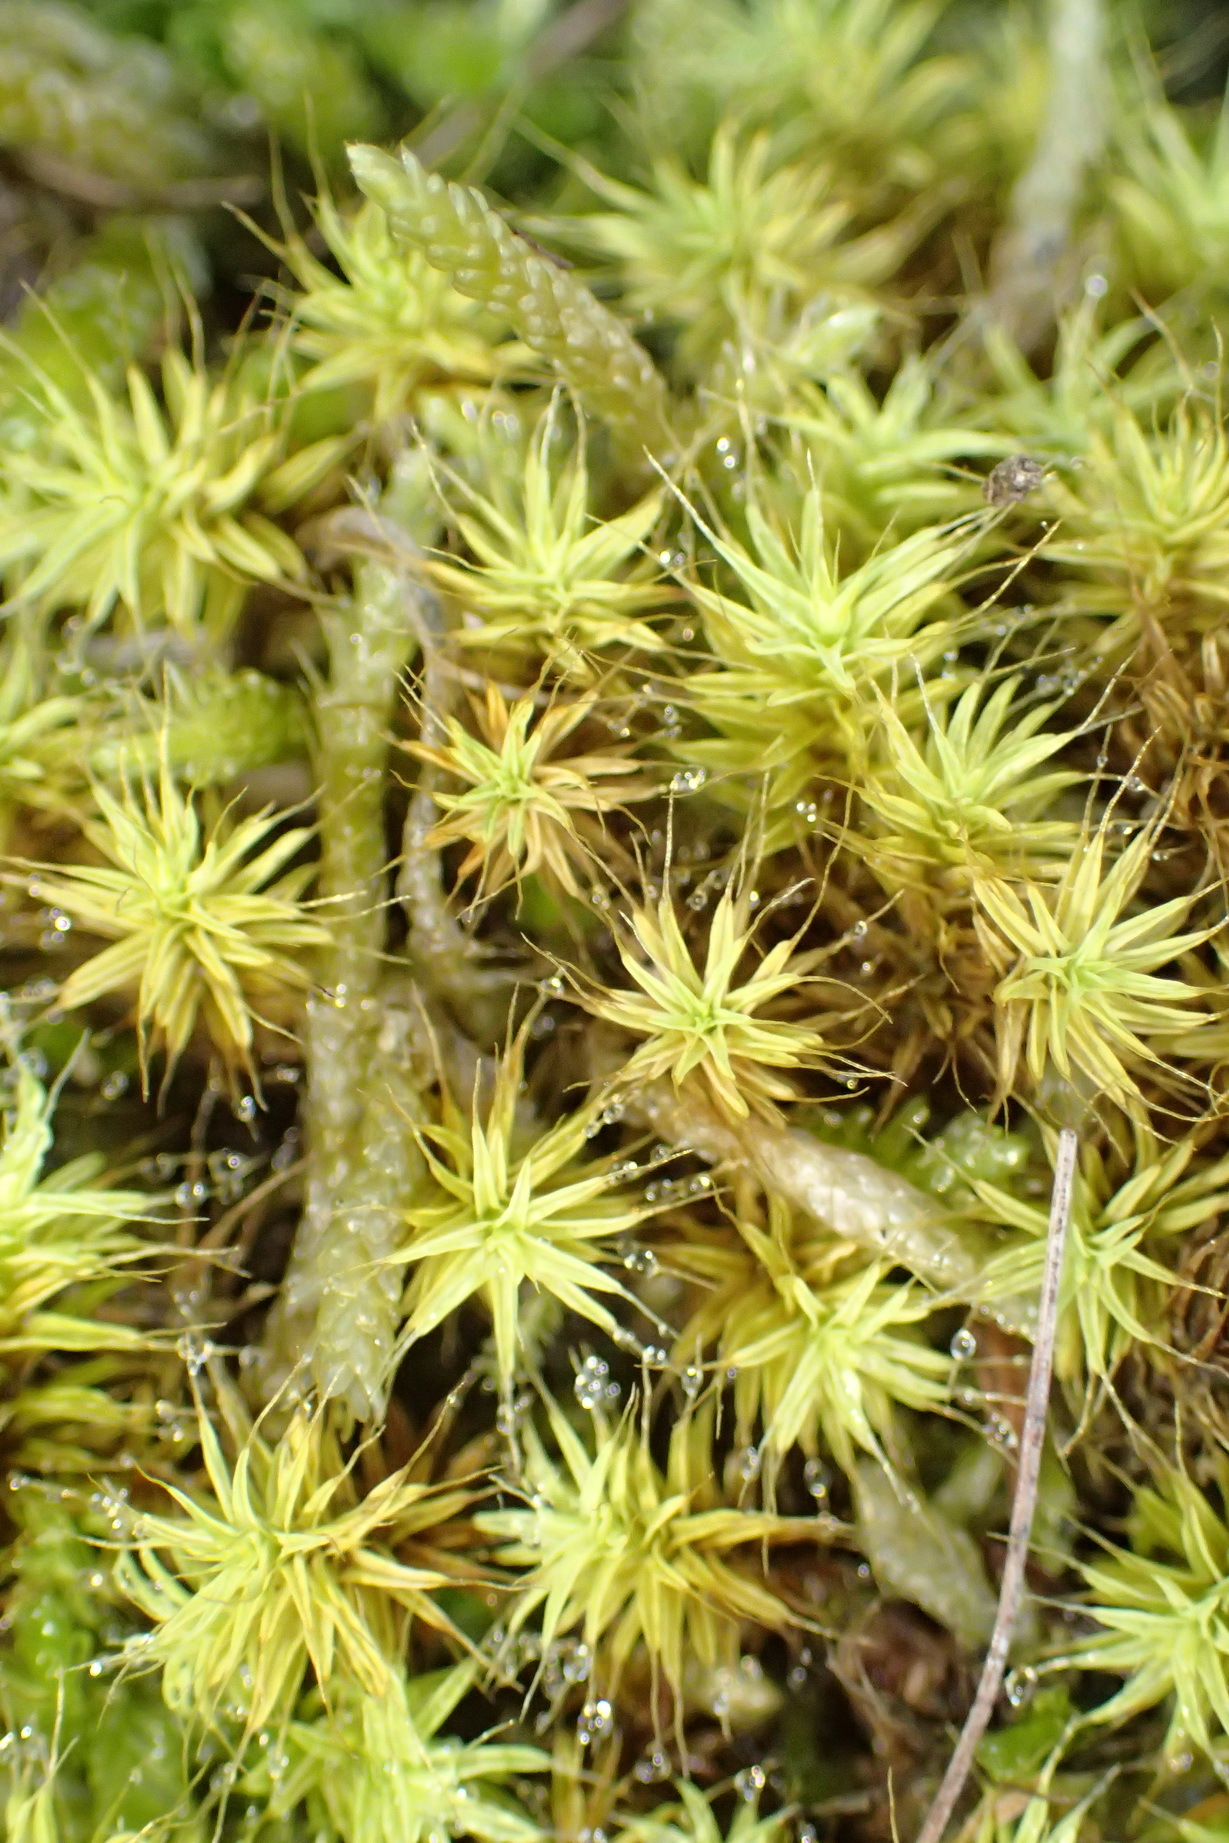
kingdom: Plantae
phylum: Bryophyta
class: Bryopsida
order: Pottiales
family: Pottiaceae
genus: Pseudocrossidium
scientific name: Pseudocrossidium crinitum
